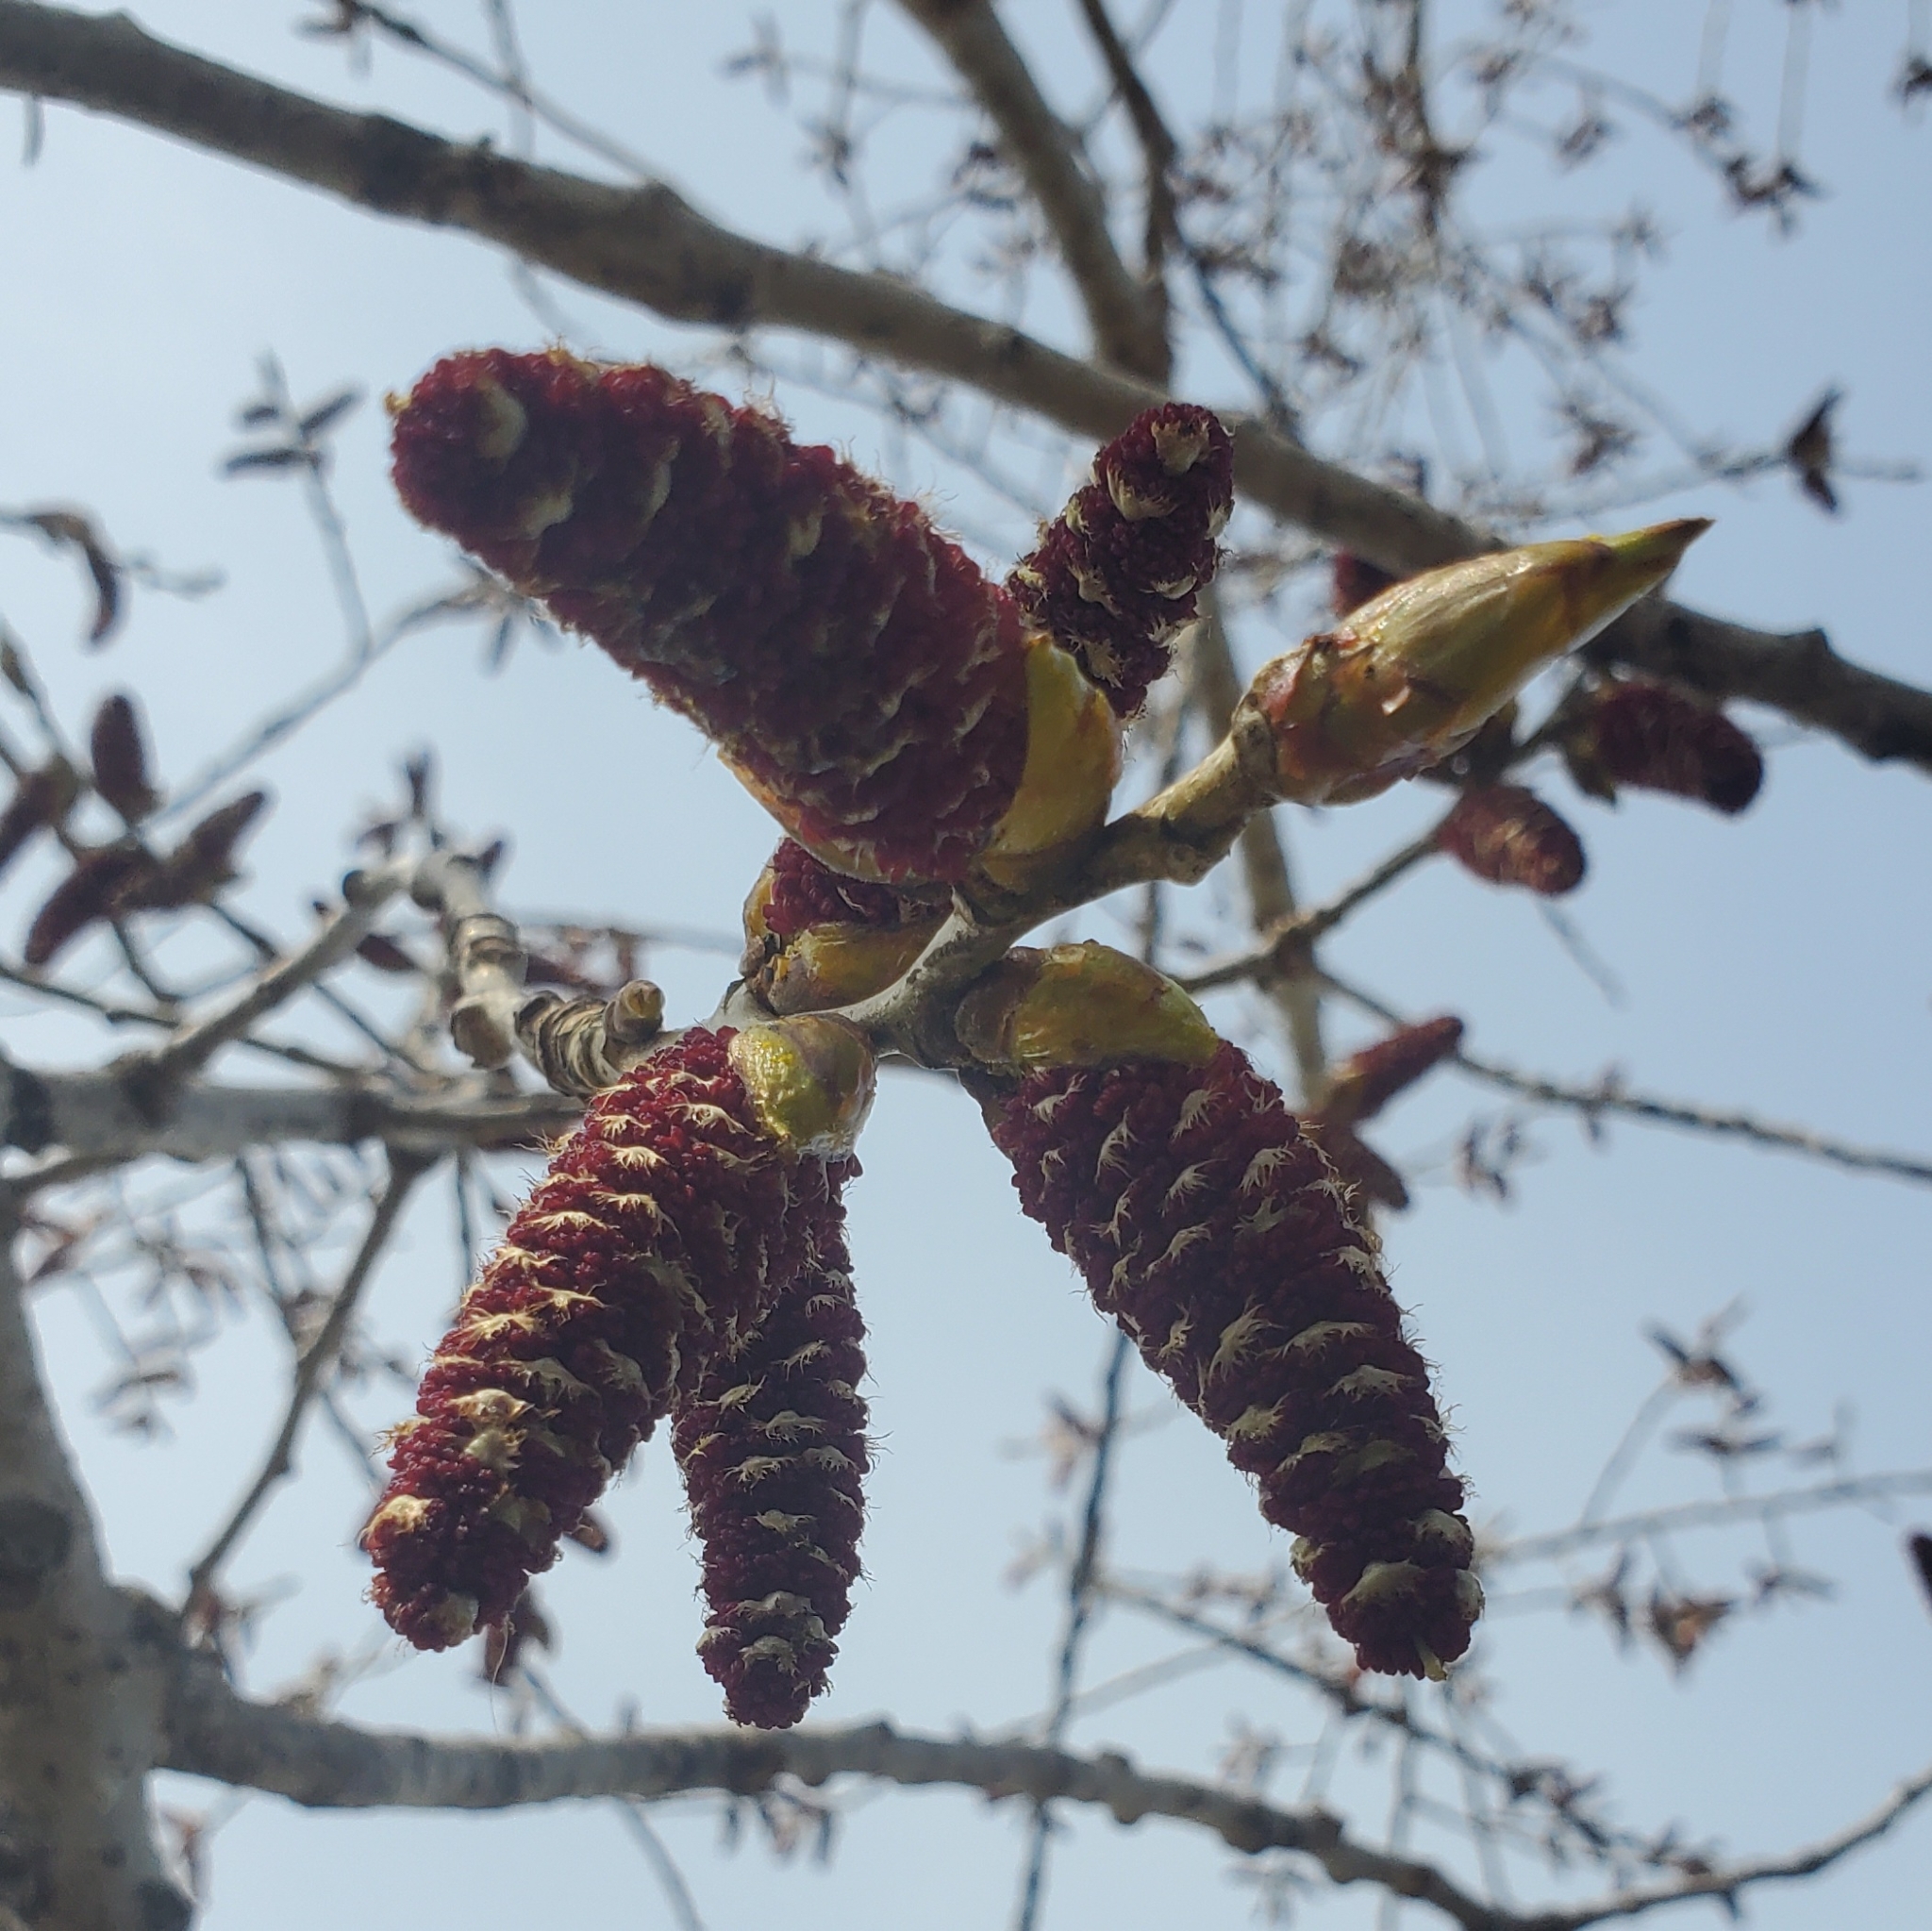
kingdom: Plantae
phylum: Tracheophyta
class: Magnoliopsida
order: Malpighiales
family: Salicaceae
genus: Populus
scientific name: Populus deltoides
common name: Eastern cottonwood
